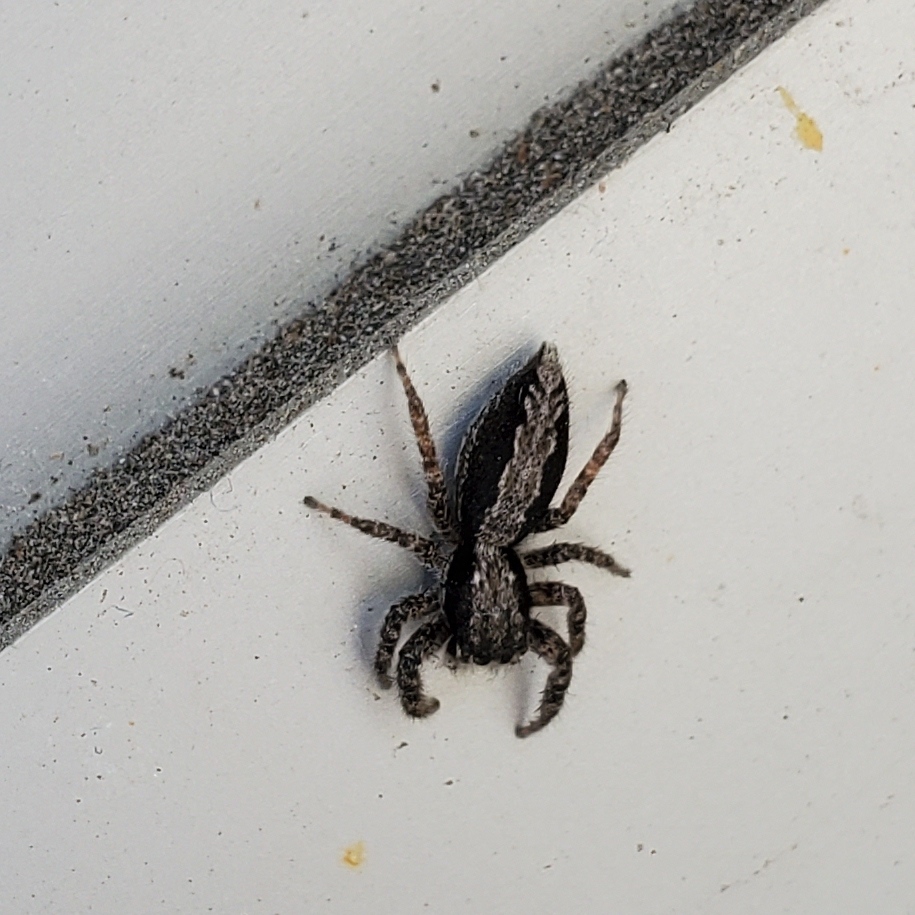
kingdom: Animalia
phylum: Arthropoda
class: Arachnida
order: Araneae
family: Salticidae
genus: Platycryptus
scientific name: Platycryptus californicus
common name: Jumping spiders
